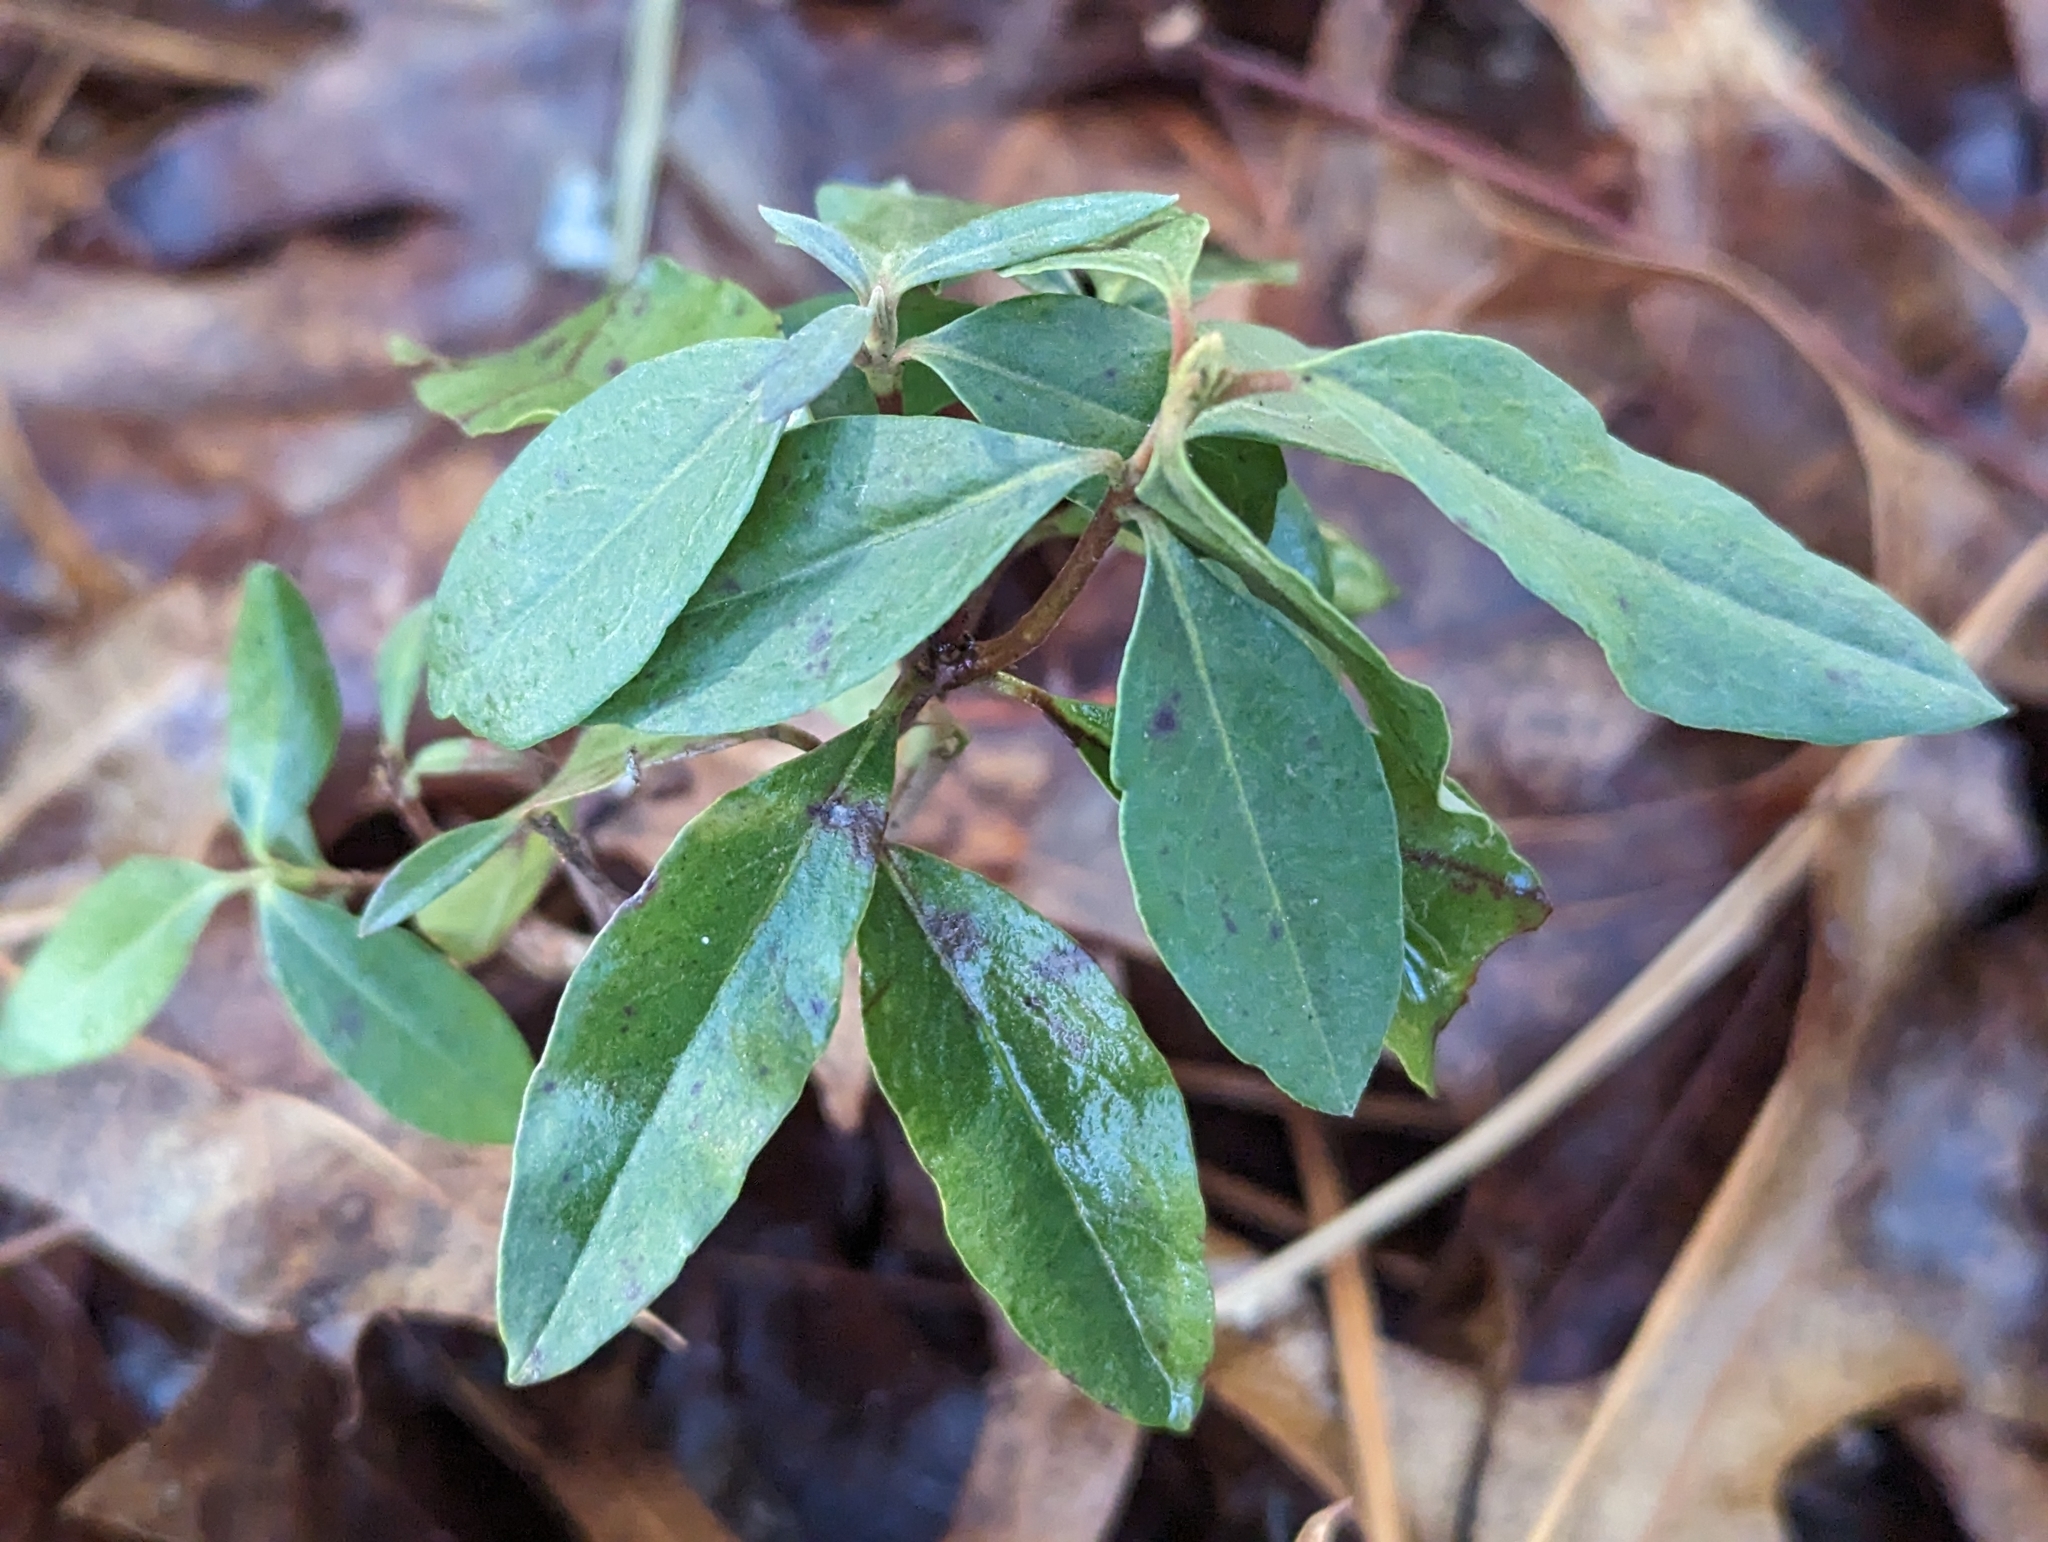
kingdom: Plantae
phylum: Tracheophyta
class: Magnoliopsida
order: Ericales
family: Ericaceae
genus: Kalmia
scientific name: Kalmia angustifolia
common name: Sheep-laurel
